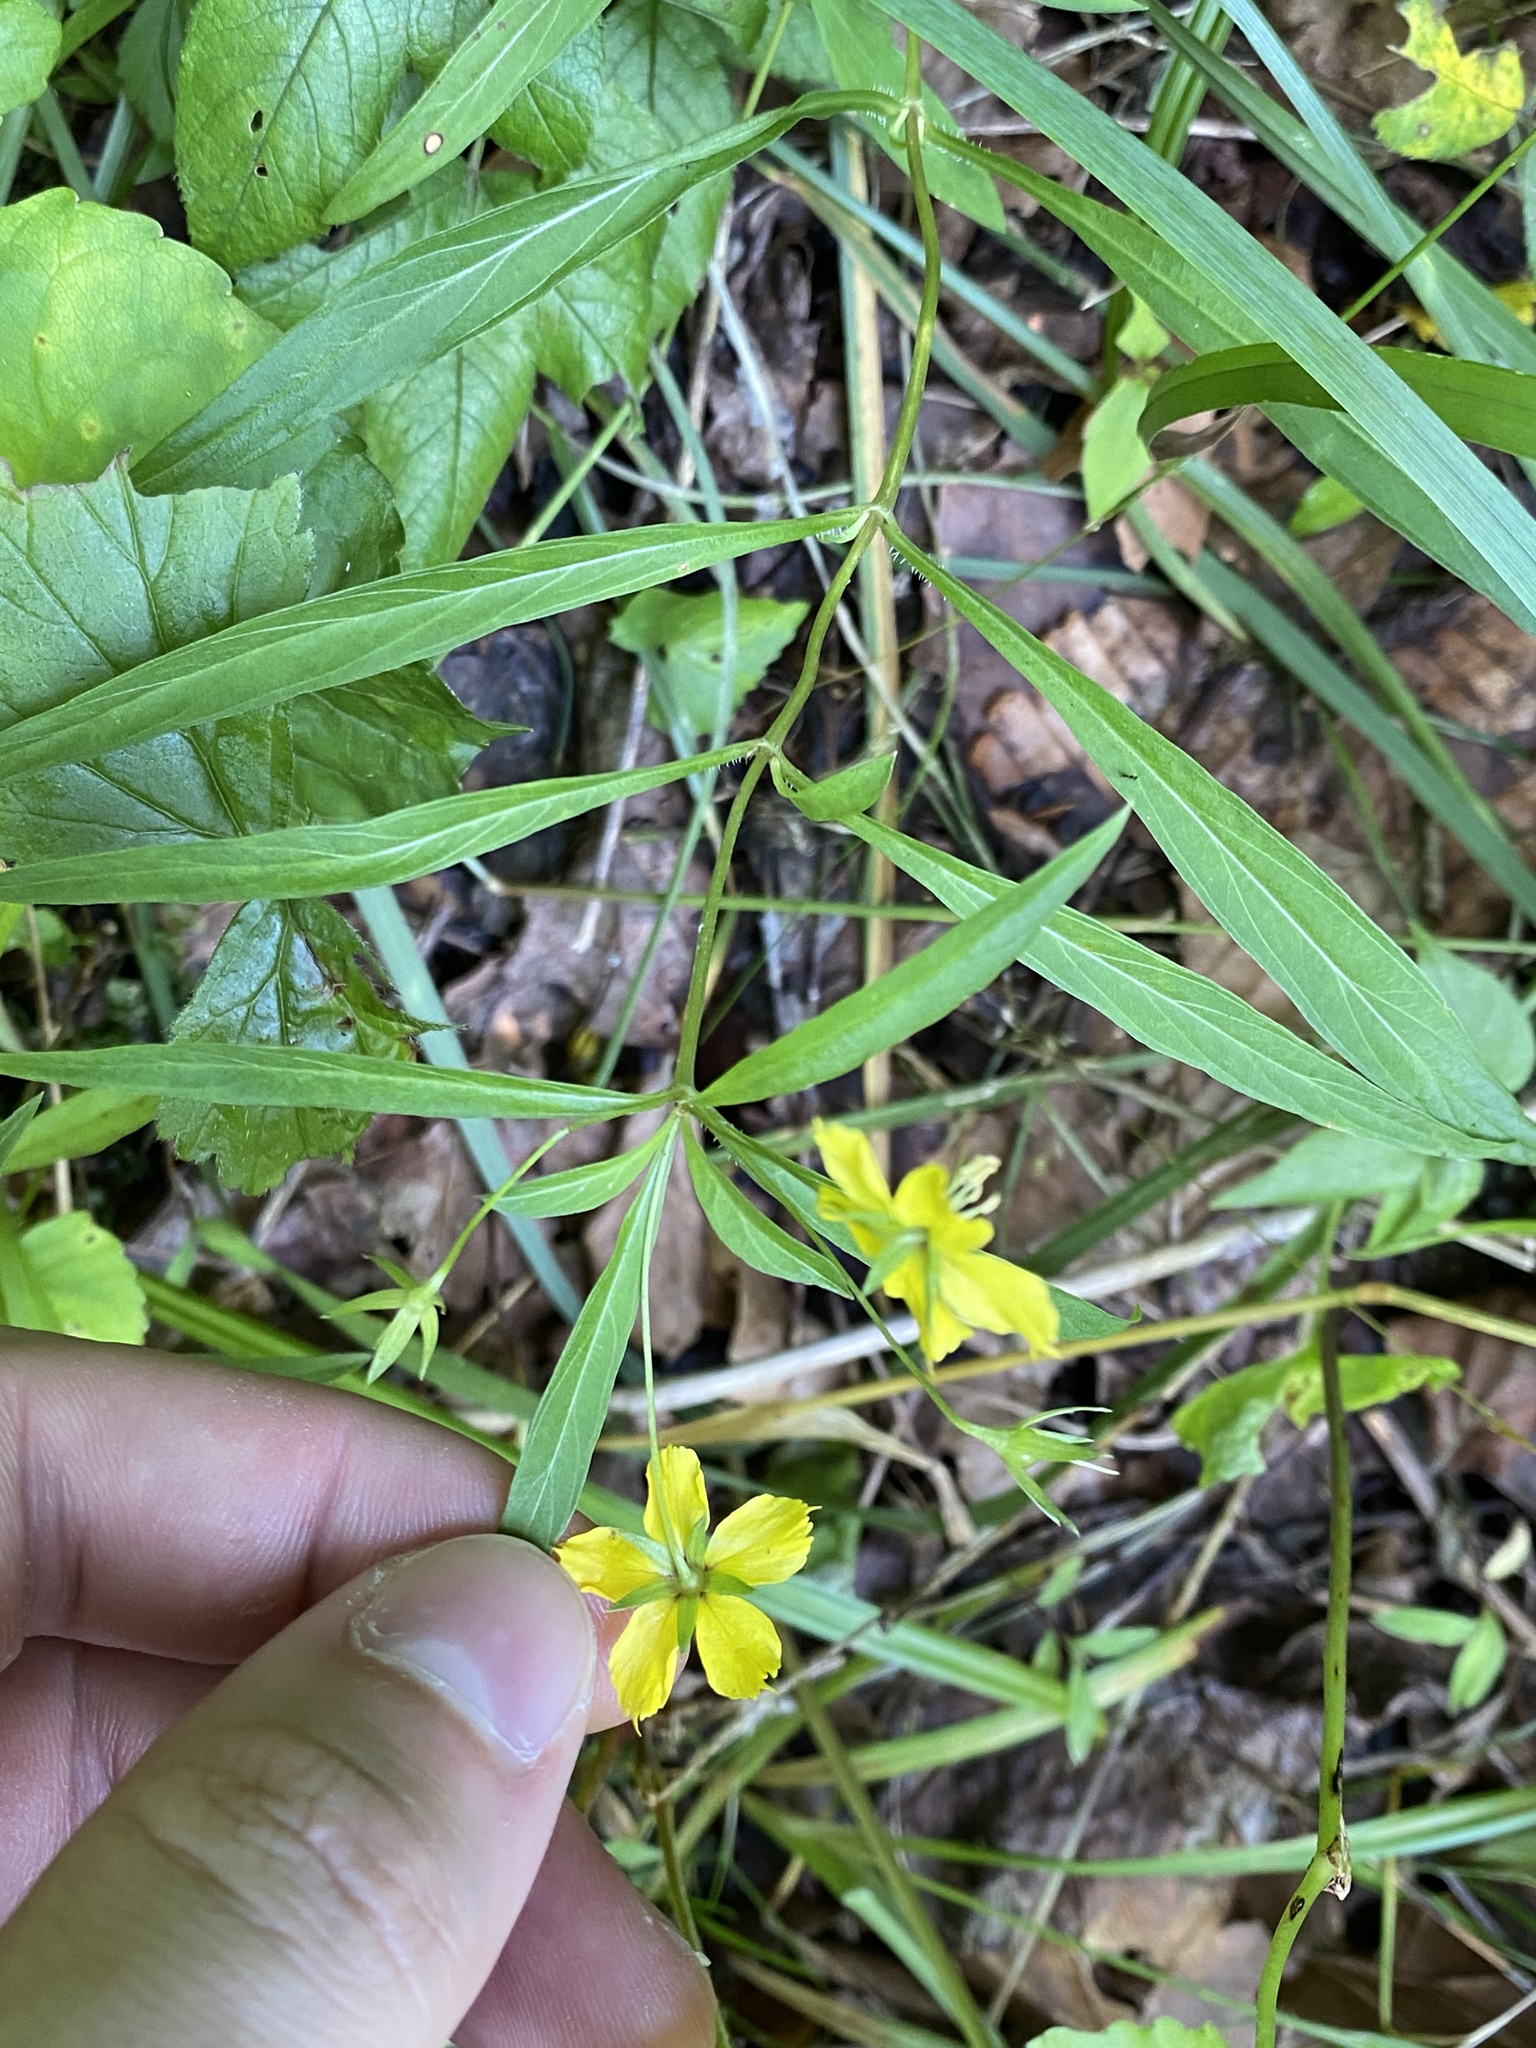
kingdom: Plantae
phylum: Tracheophyta
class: Magnoliopsida
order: Ericales
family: Primulaceae
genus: Lysimachia
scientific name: Lysimachia lanceolata
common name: Lance-leaved loosestrife
